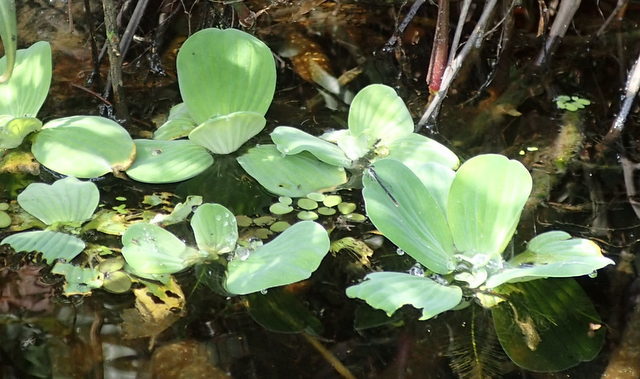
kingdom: Plantae
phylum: Tracheophyta
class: Liliopsida
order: Alismatales
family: Araceae
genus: Pistia
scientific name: Pistia stratiotes
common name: Water lettuce
